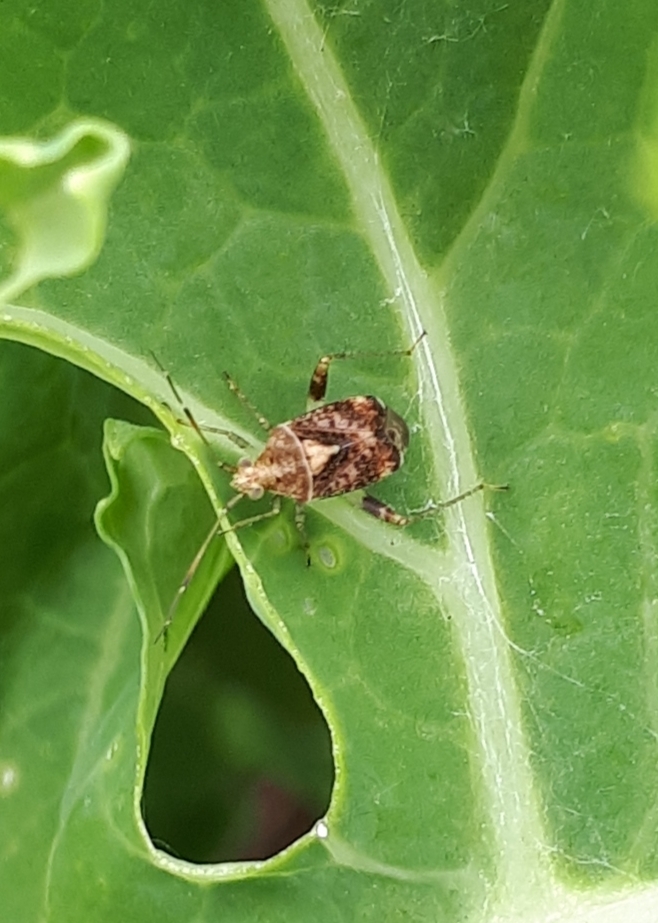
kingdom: Animalia
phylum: Arthropoda
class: Insecta
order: Hemiptera
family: Miridae
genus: Sidnia
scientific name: Sidnia kinbergi
